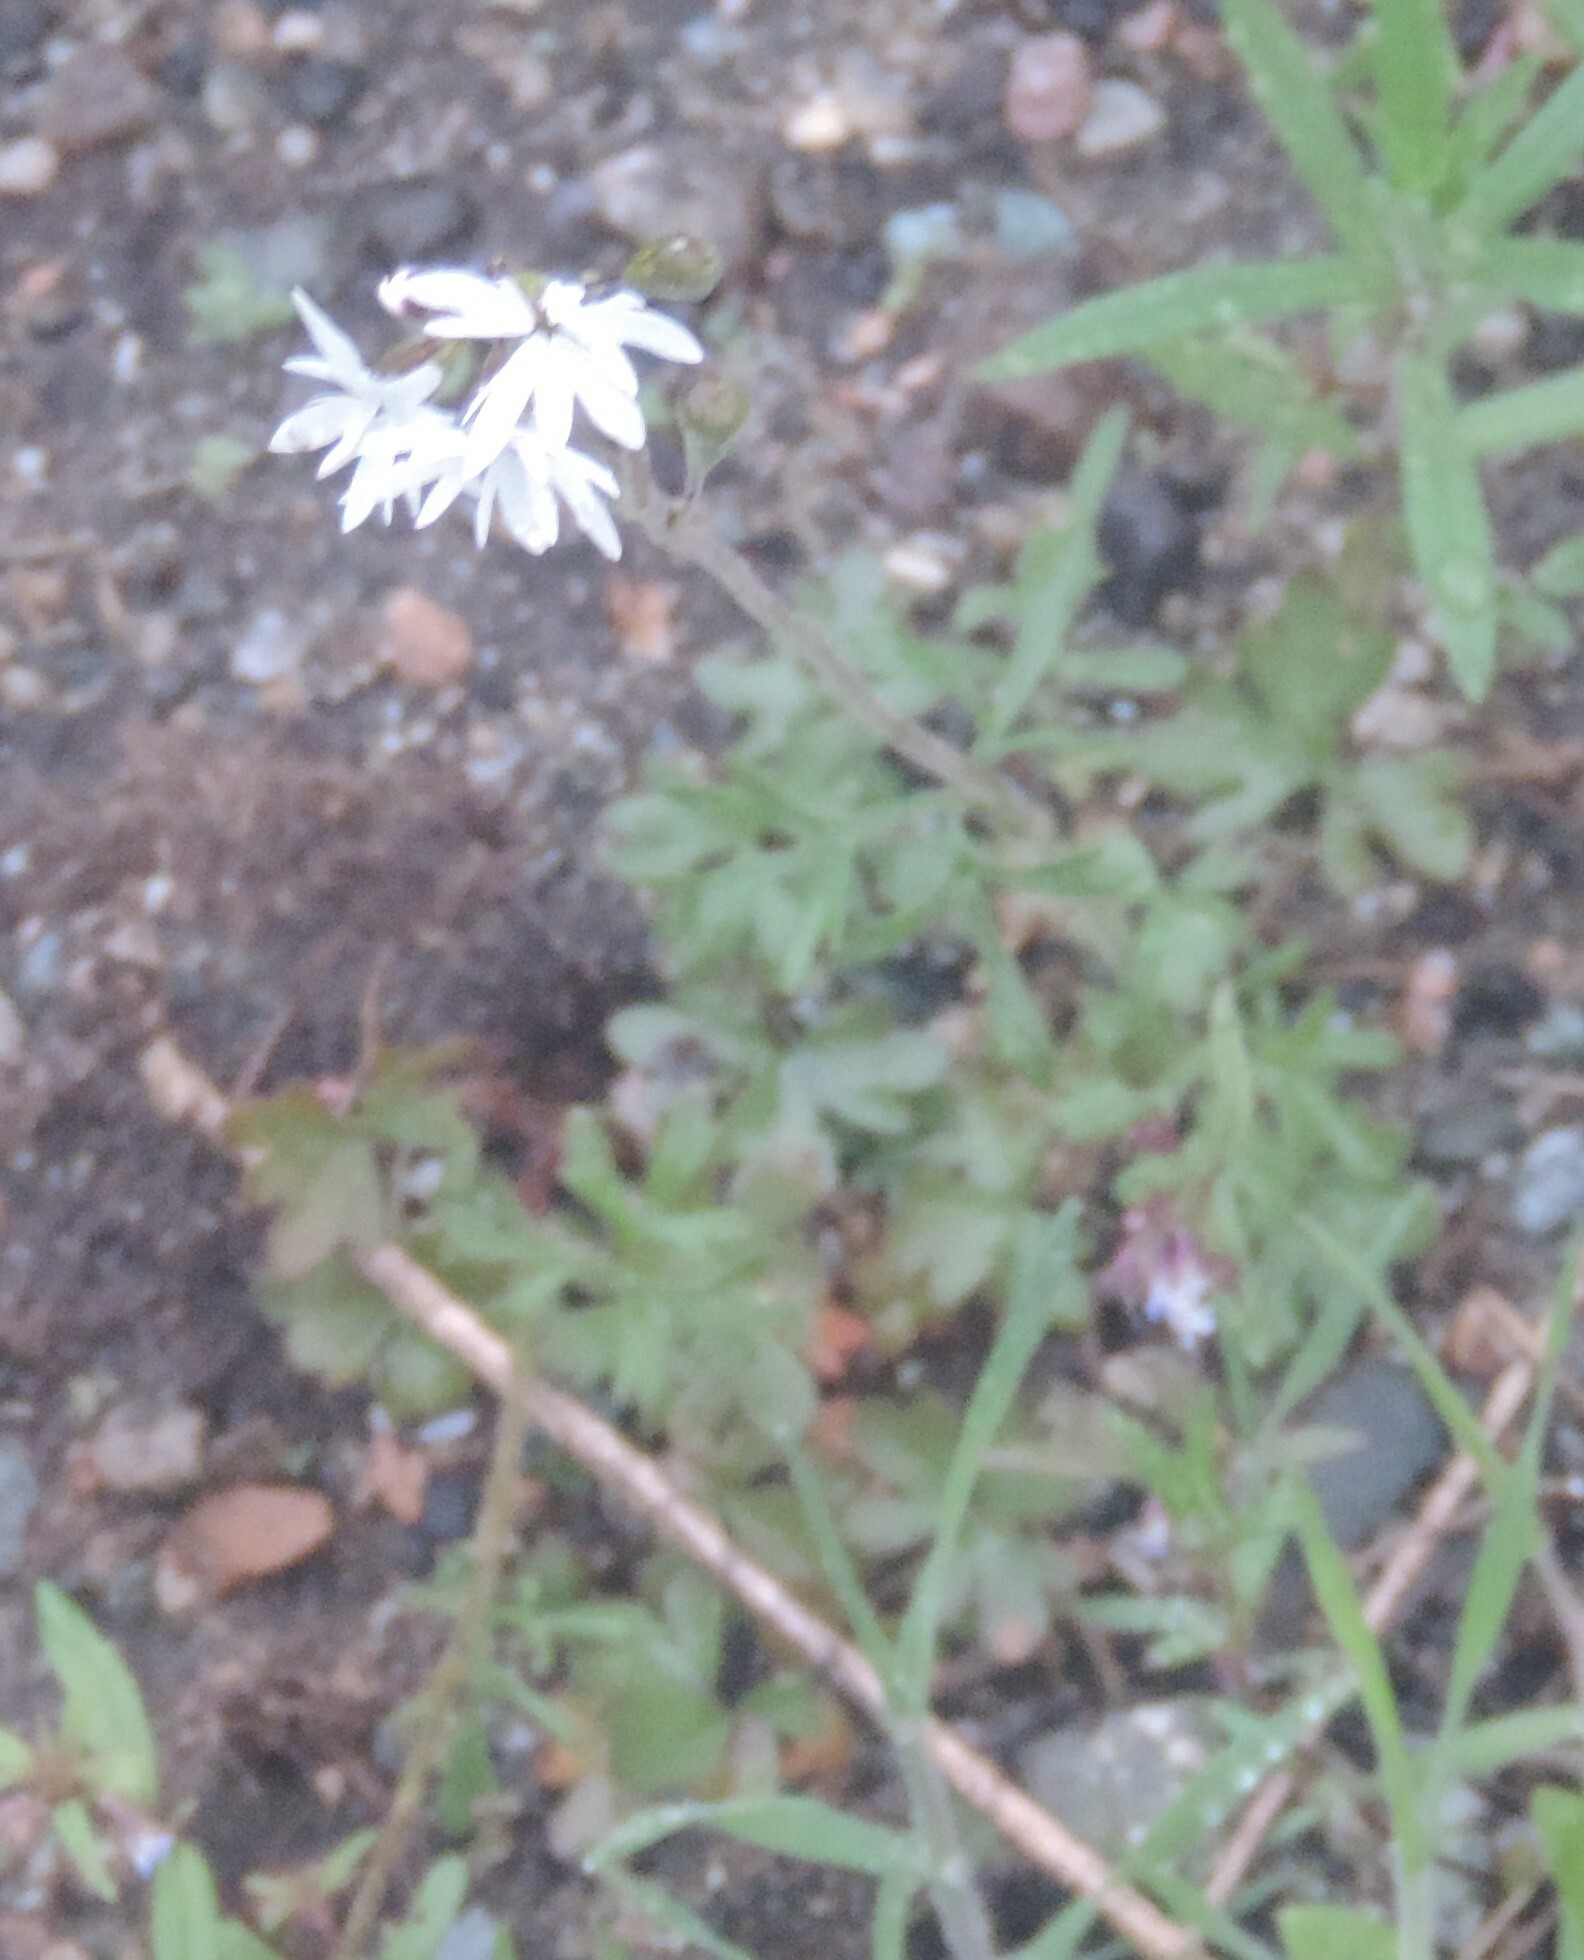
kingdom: Plantae
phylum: Tracheophyta
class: Magnoliopsida
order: Saxifragales
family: Saxifragaceae
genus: Lithophragma
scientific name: Lithophragma parviflorum
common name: Small-flowered fringe-cup
